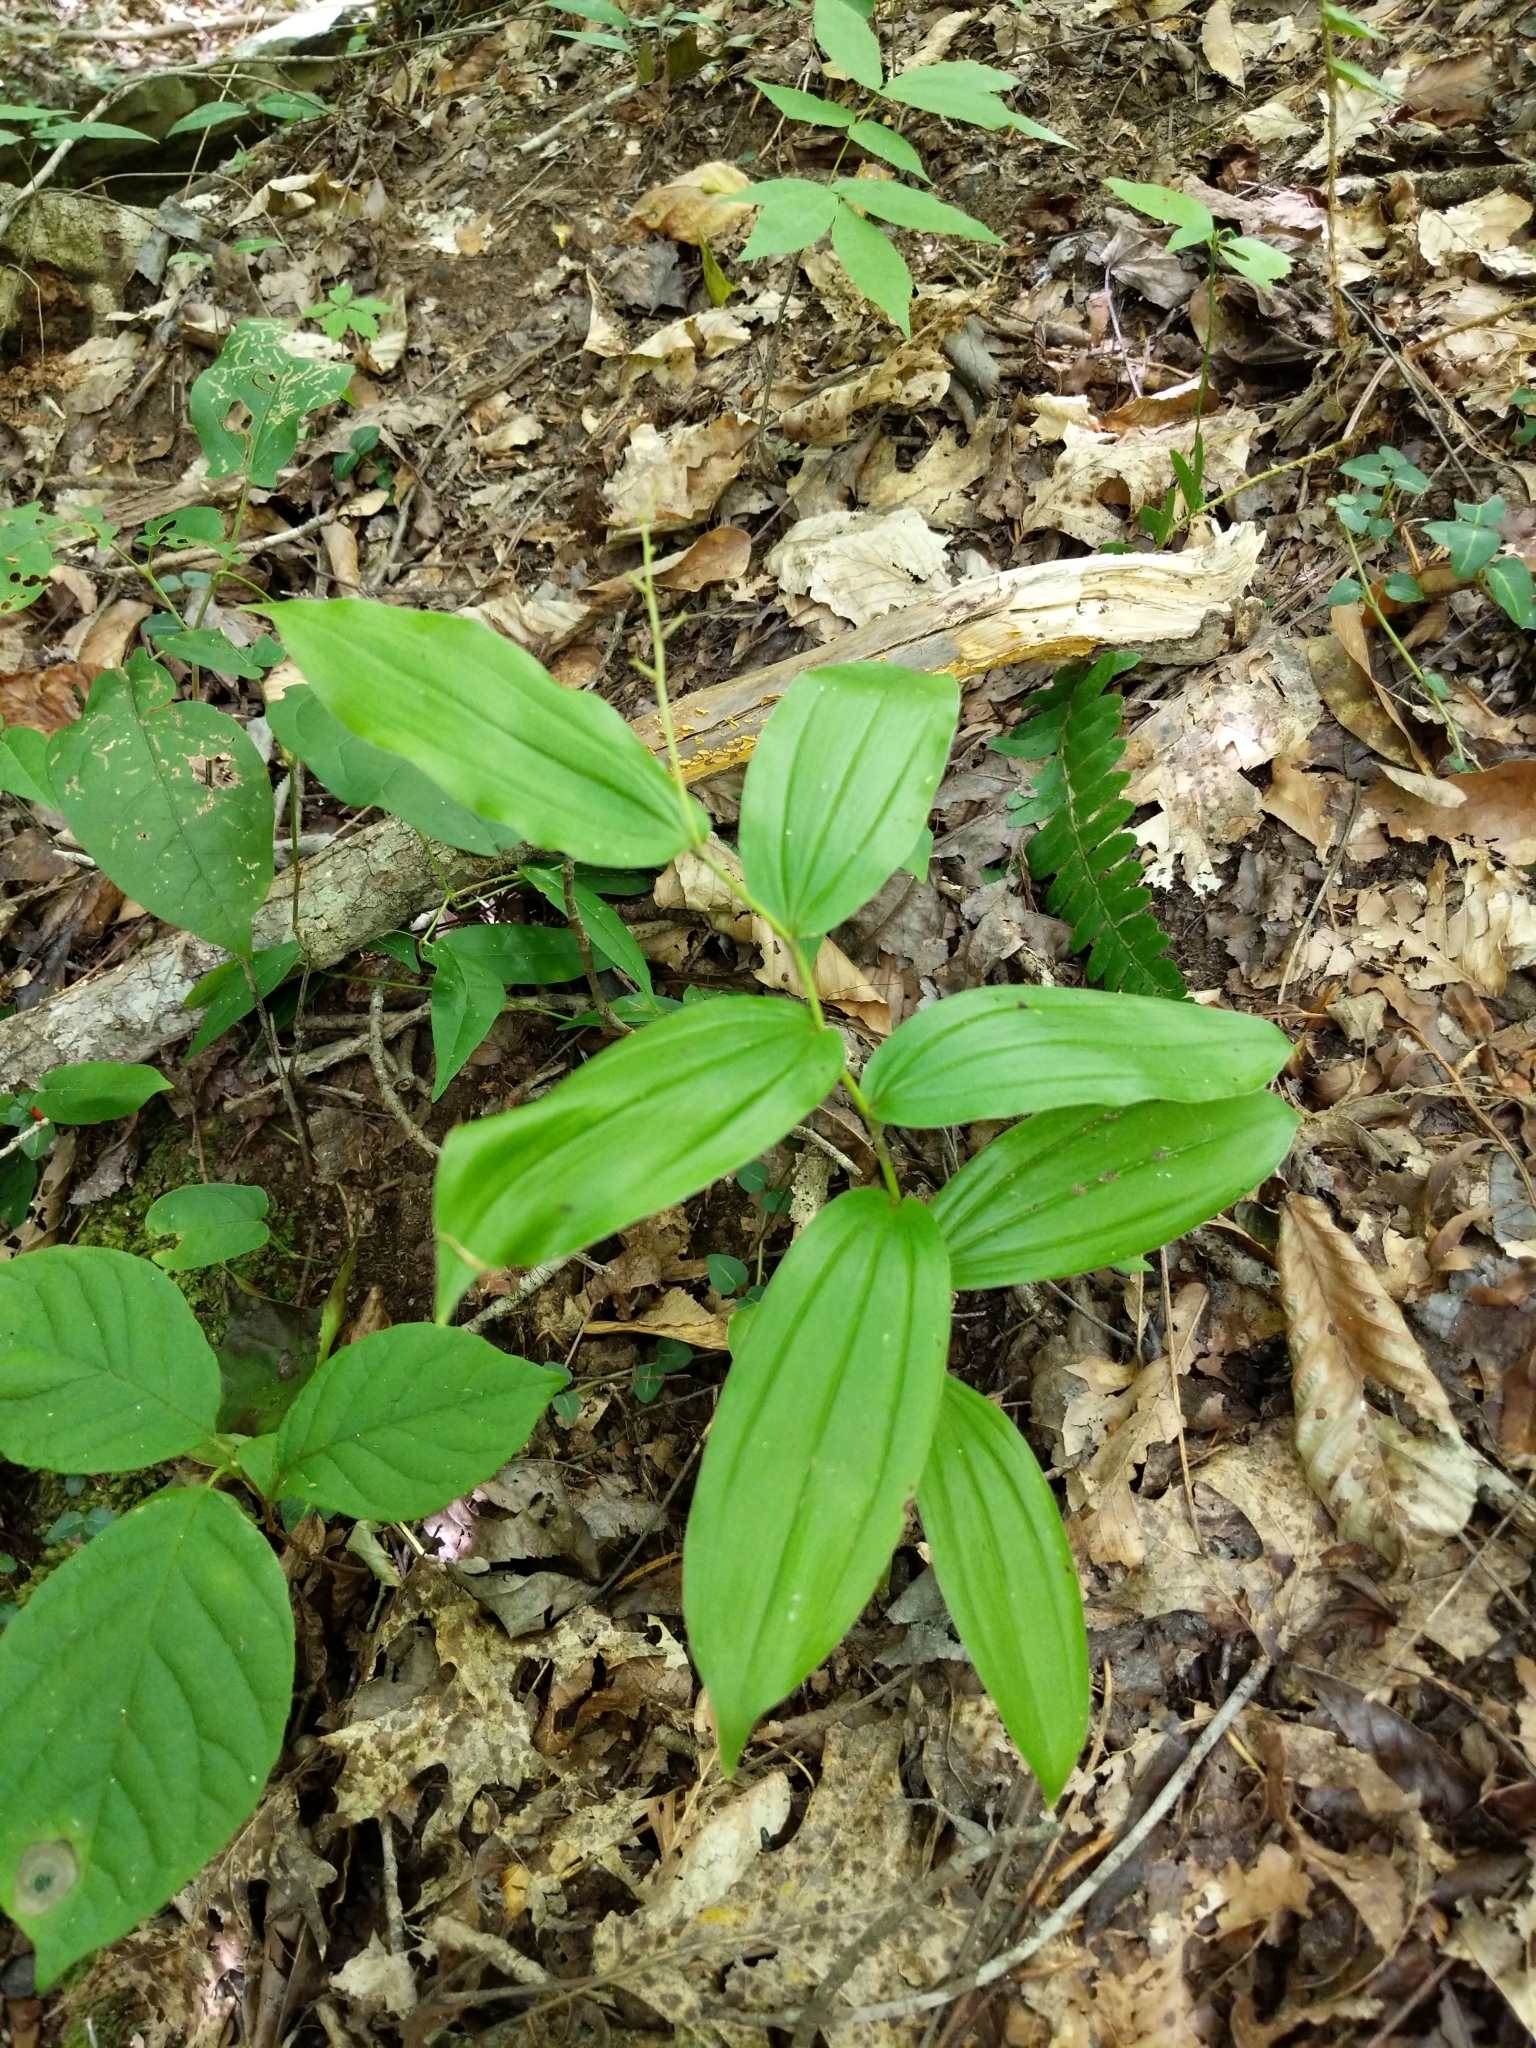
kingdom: Plantae
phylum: Tracheophyta
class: Liliopsida
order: Asparagales
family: Asparagaceae
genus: Maianthemum
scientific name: Maianthemum racemosum
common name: False spikenard
